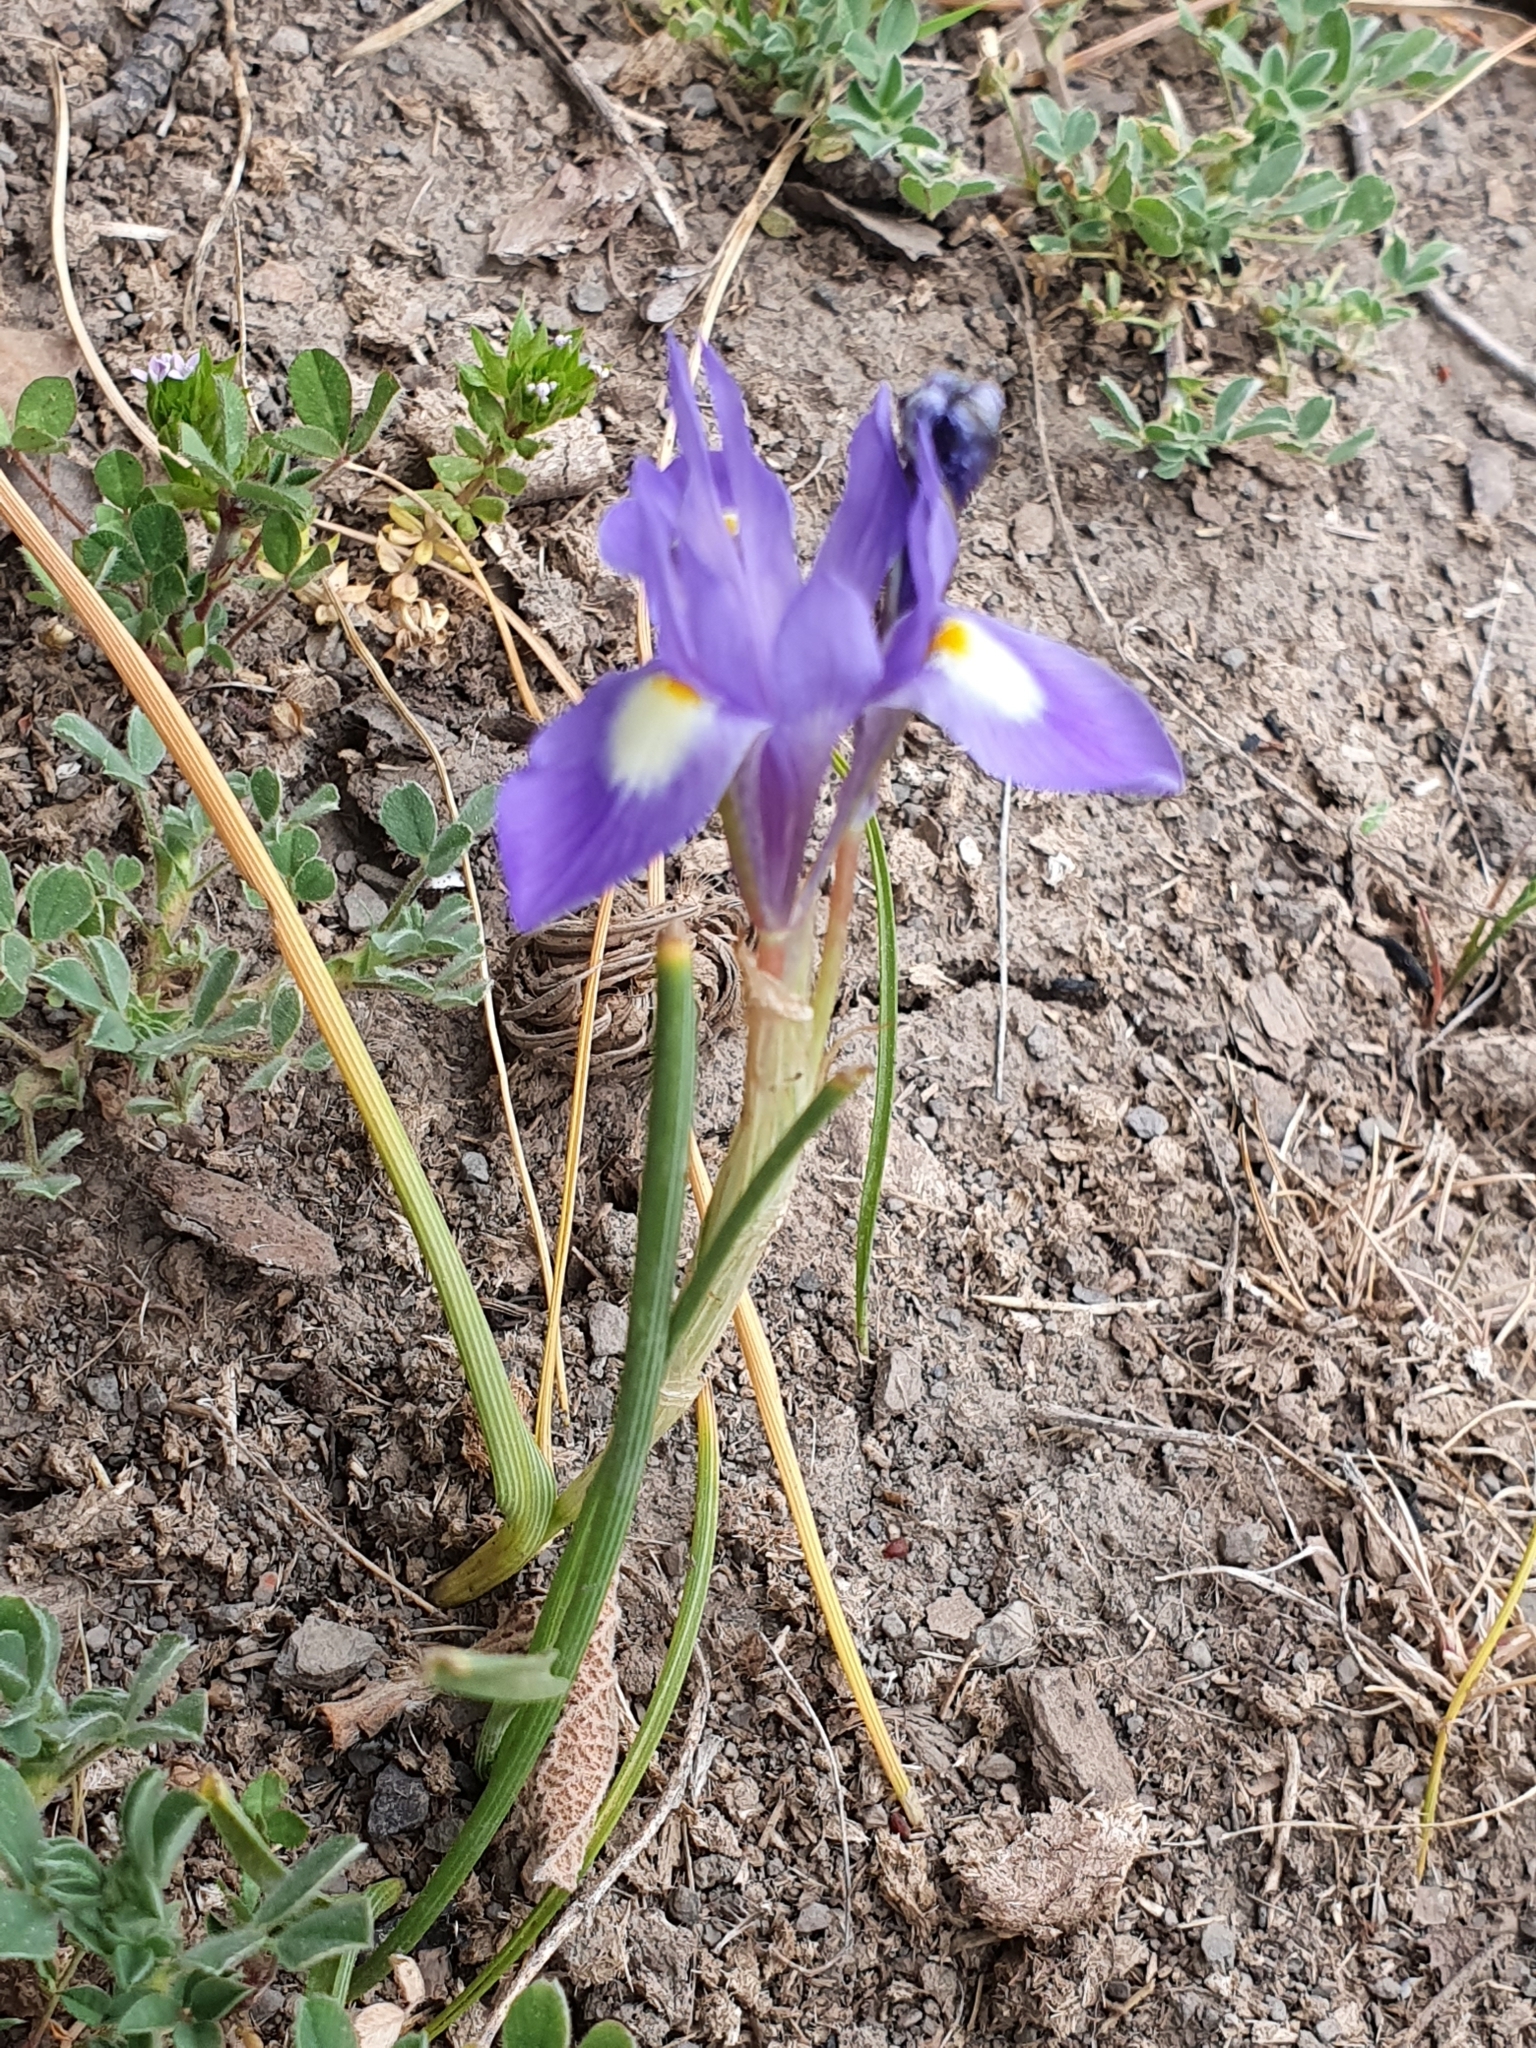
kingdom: Plantae
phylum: Tracheophyta
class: Liliopsida
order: Asparagales
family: Iridaceae
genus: Moraea
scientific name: Moraea sisyrinchium
